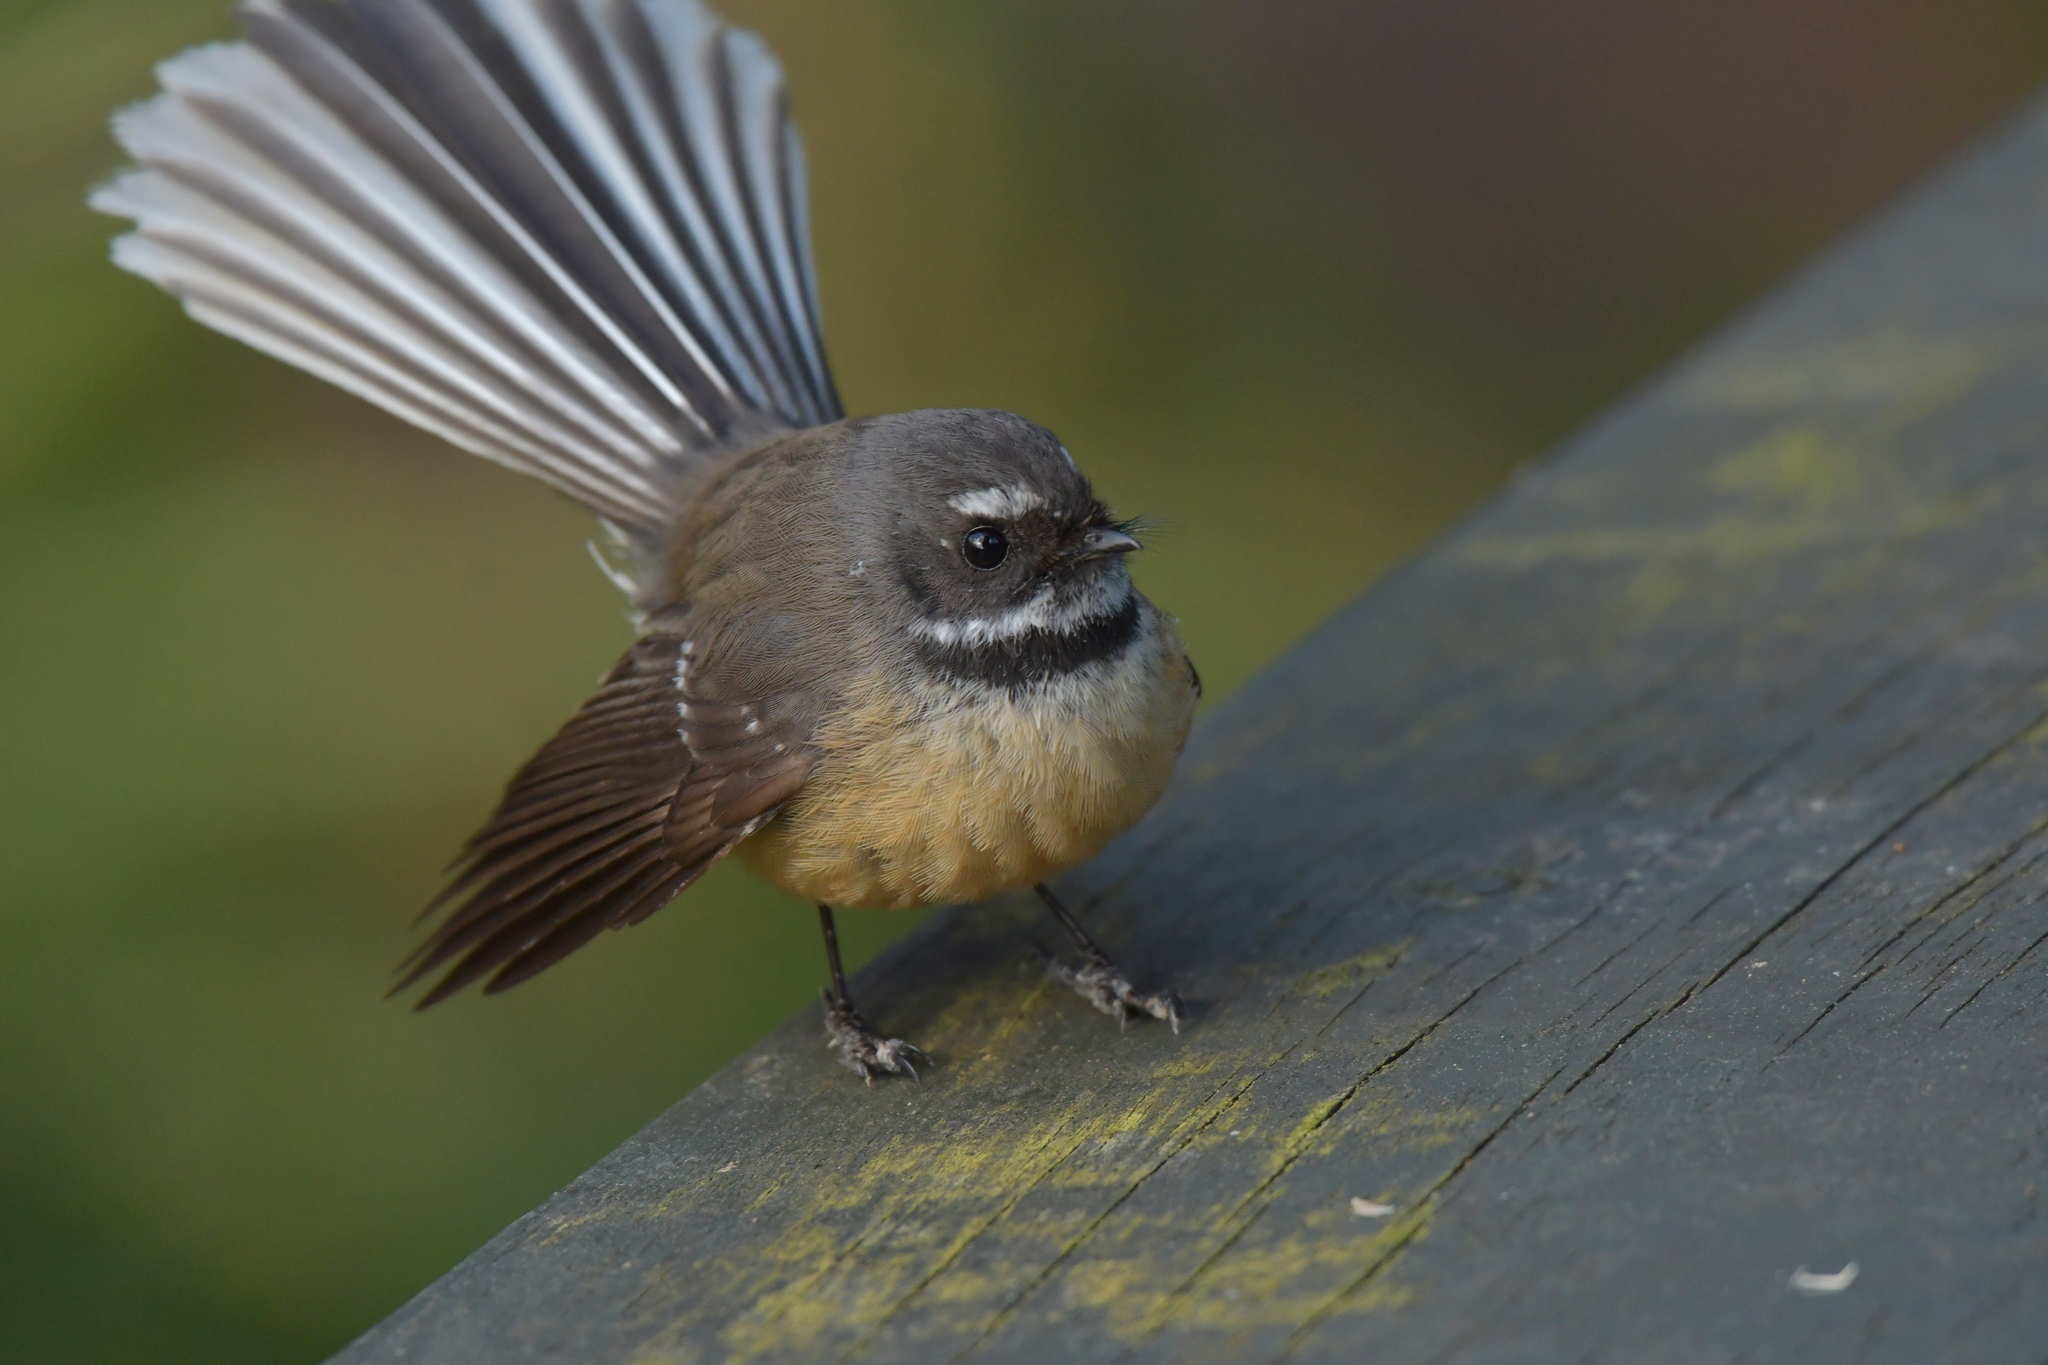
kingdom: Animalia
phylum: Chordata
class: Aves
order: Passeriformes
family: Rhipiduridae
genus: Rhipidura
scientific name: Rhipidura fuliginosa
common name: New zealand fantail
